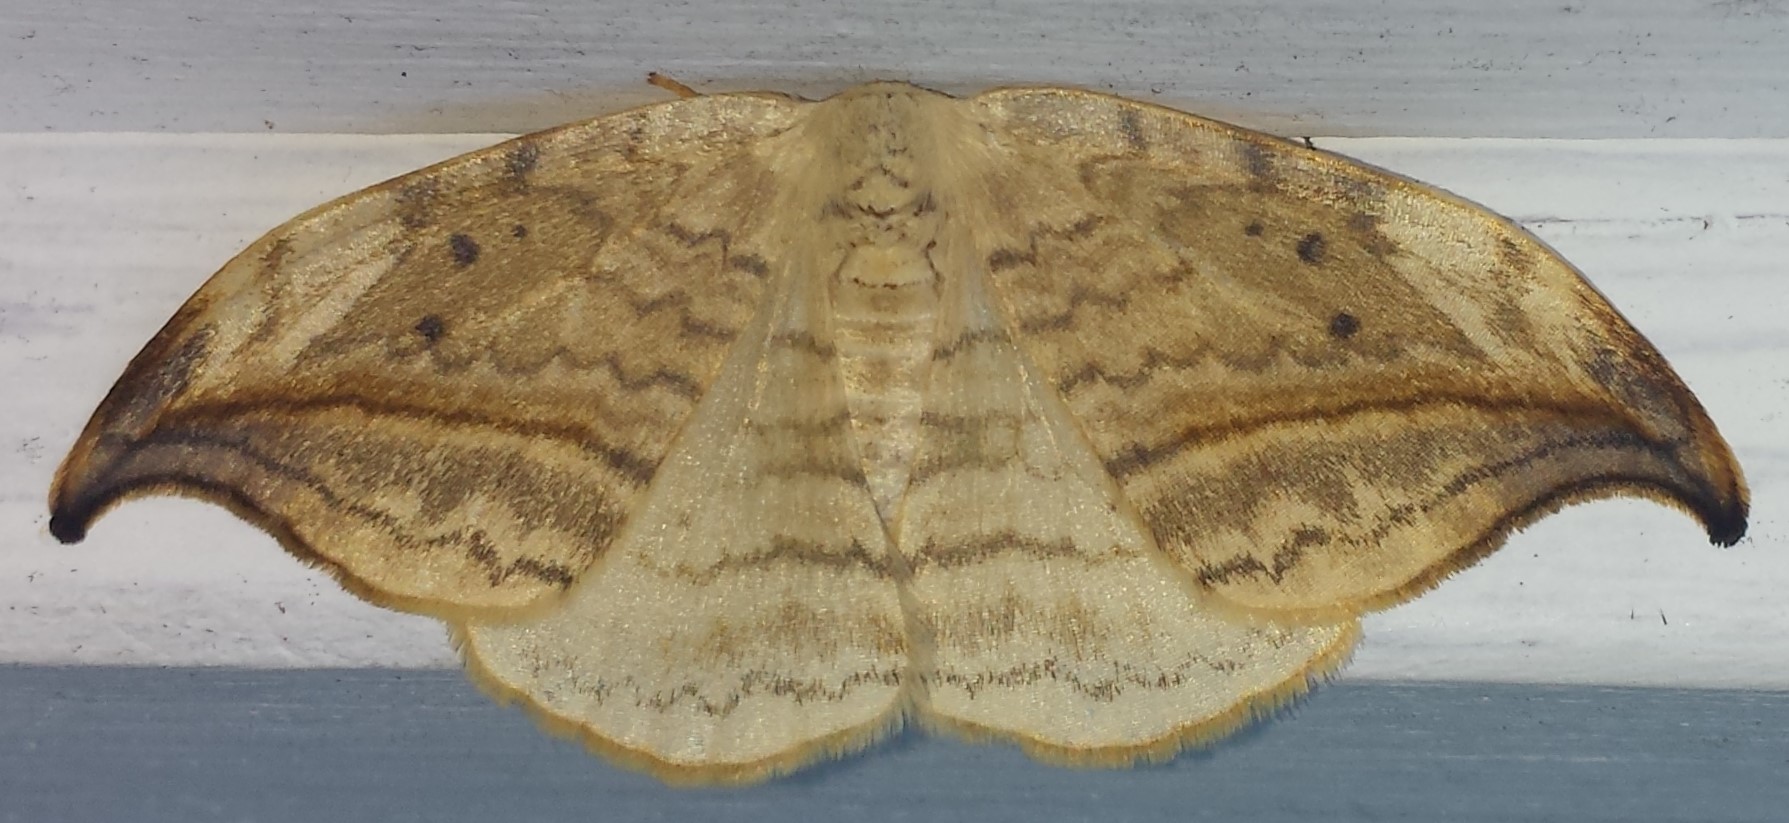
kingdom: Animalia
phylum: Arthropoda
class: Insecta
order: Lepidoptera
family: Drepanidae
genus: Drepana
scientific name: Drepana arcuata
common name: Arched hooktip moth
